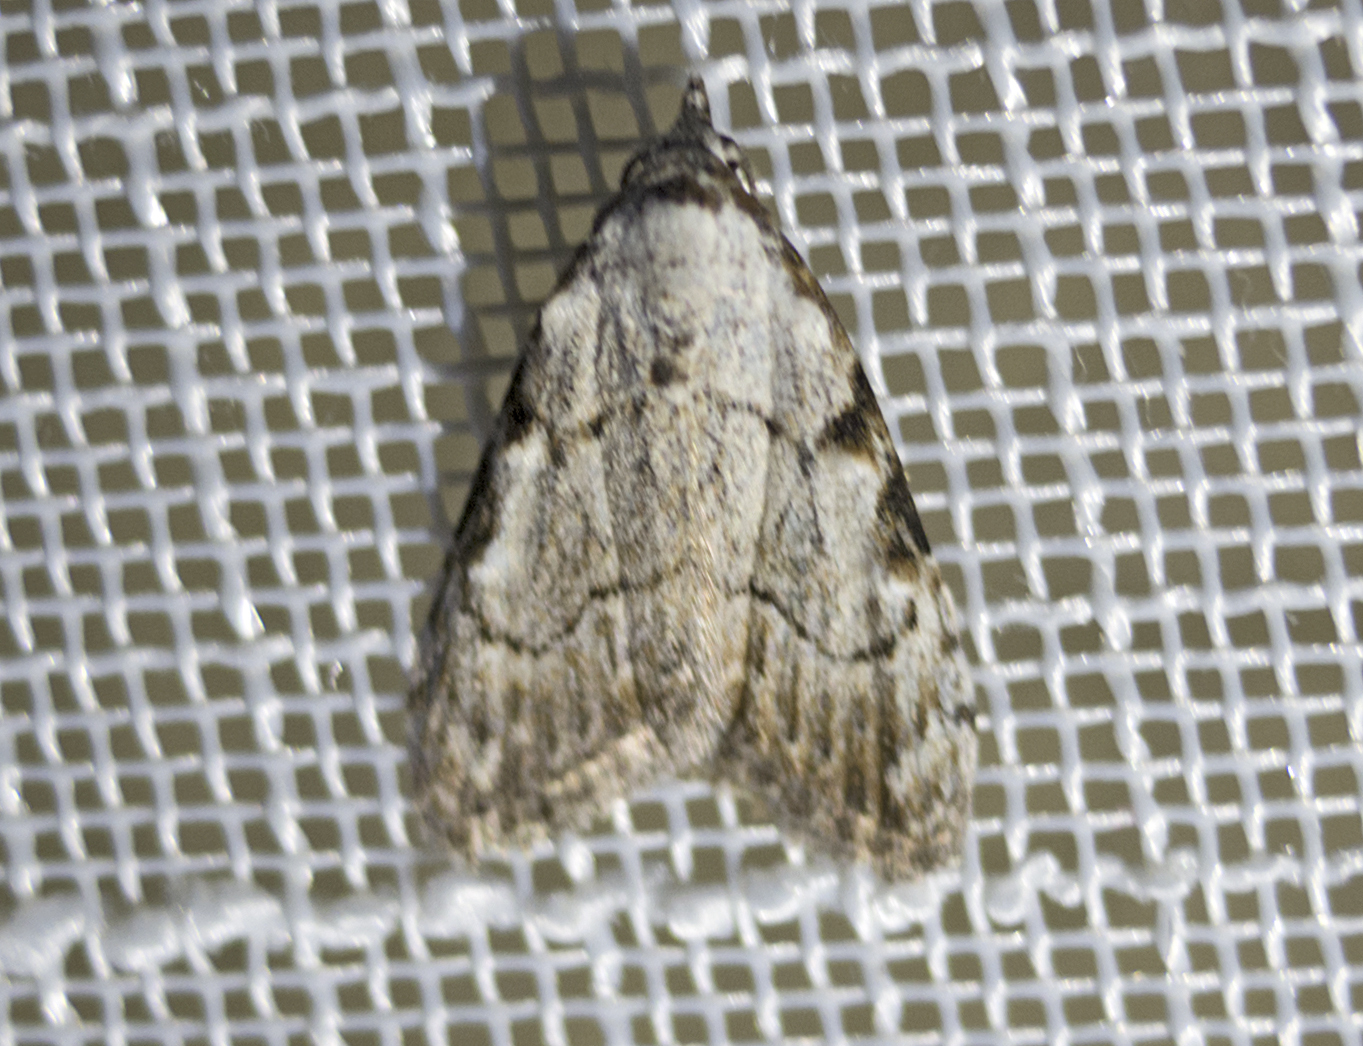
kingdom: Animalia
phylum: Arthropoda
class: Insecta
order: Lepidoptera
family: Nolidae
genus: Nola
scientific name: Nola ronkayorum
